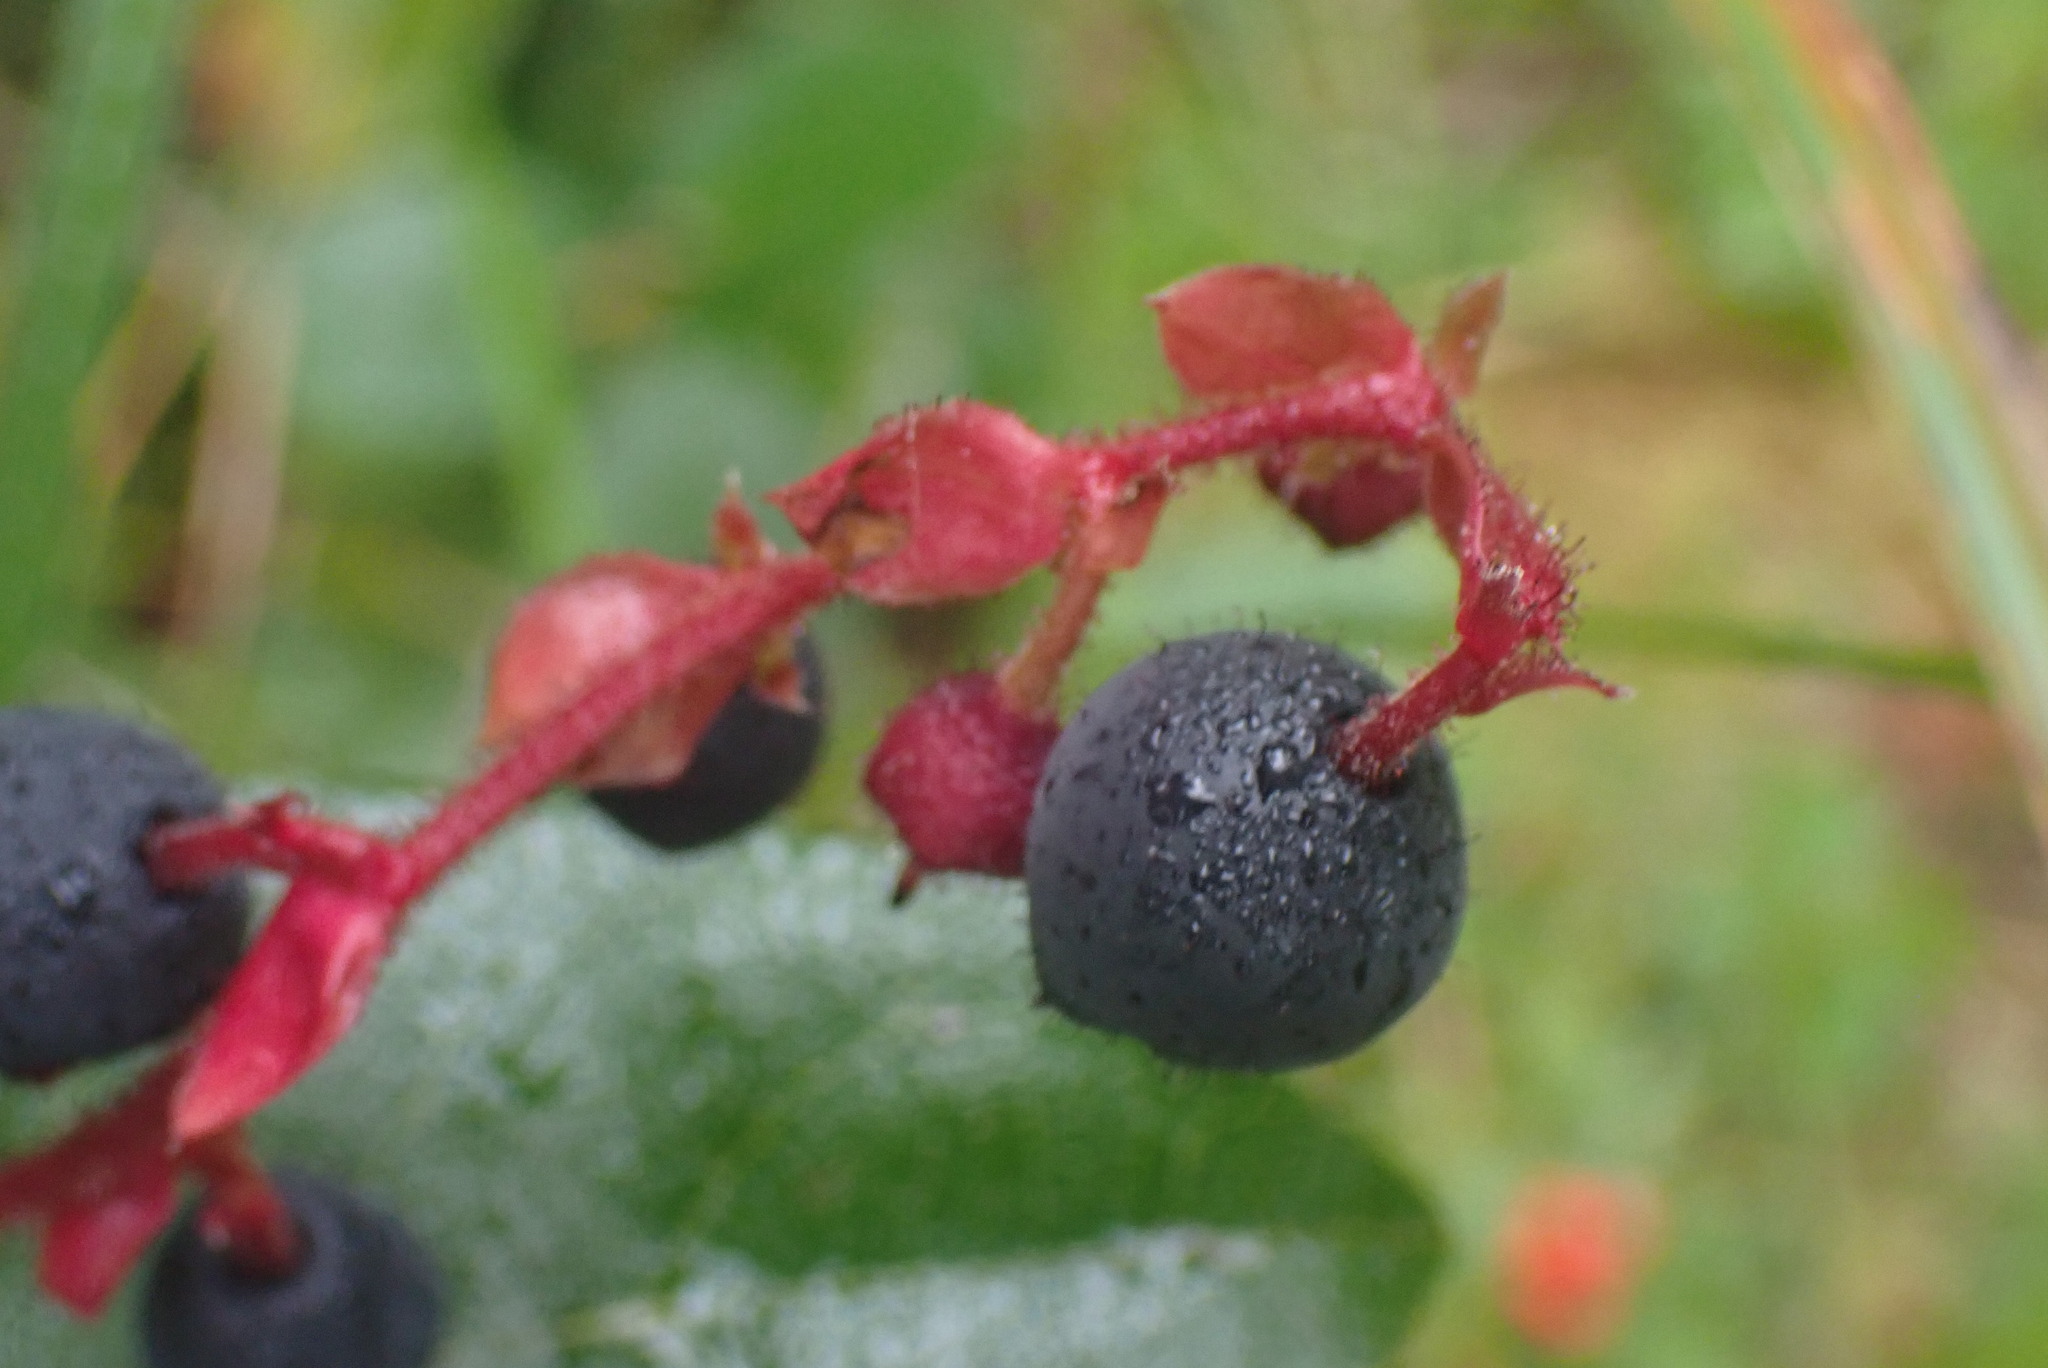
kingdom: Plantae
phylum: Tracheophyta
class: Magnoliopsida
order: Ericales
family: Ericaceae
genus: Gaultheria
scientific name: Gaultheria shallon
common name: Shallon
